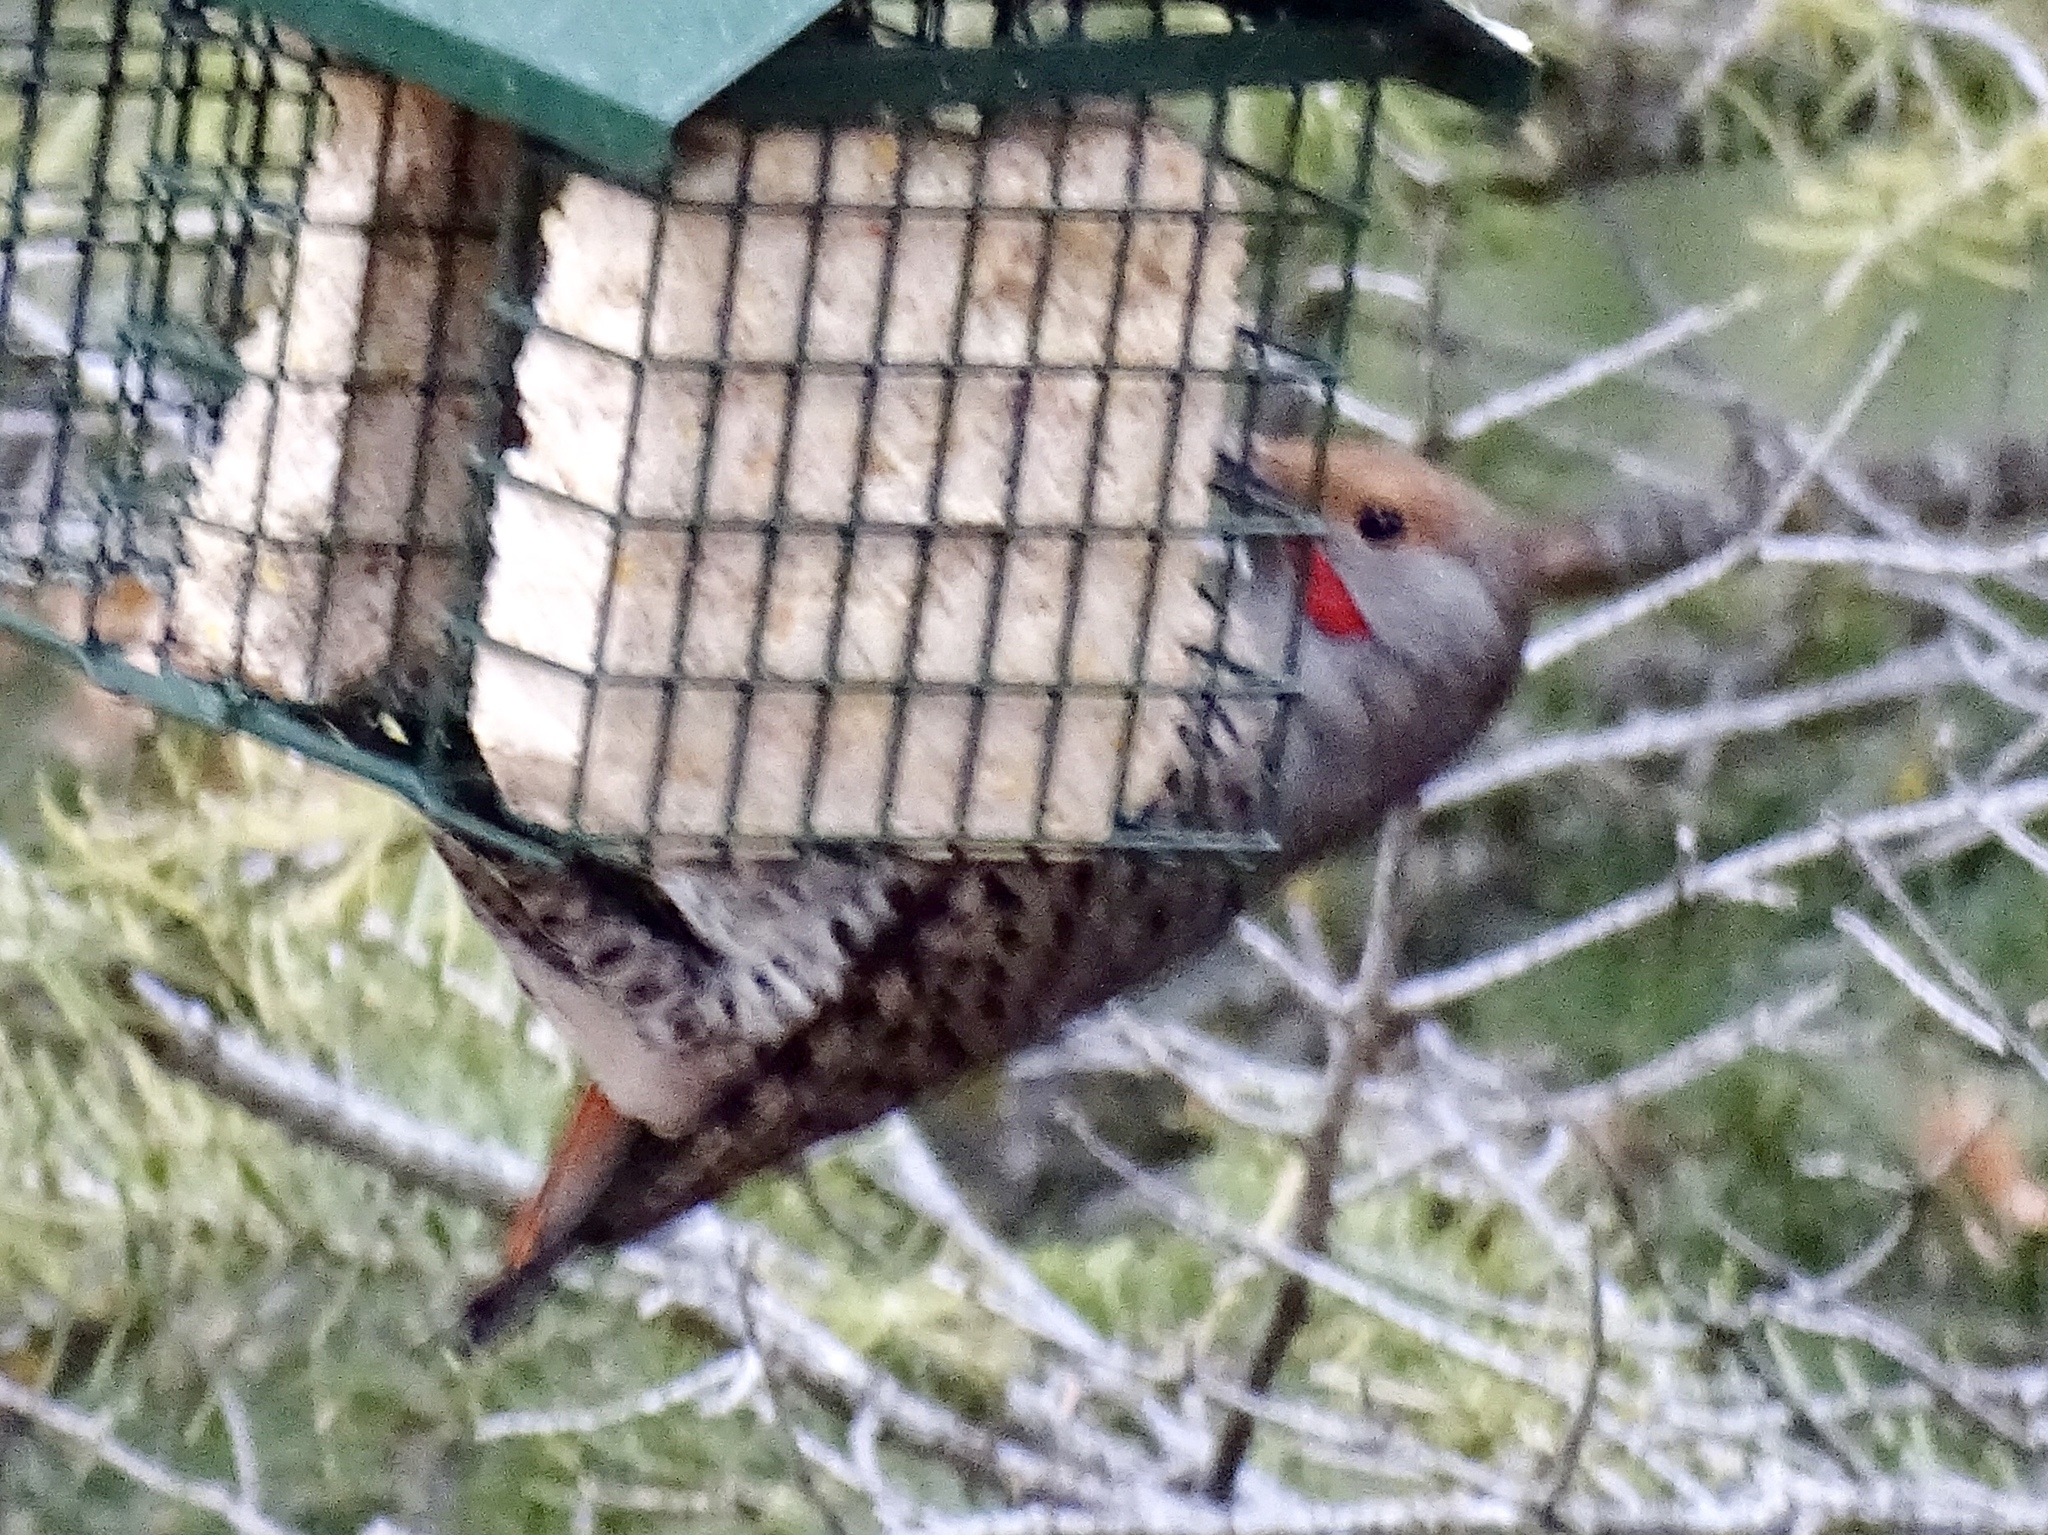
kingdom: Animalia
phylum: Chordata
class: Aves
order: Piciformes
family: Picidae
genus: Colaptes
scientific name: Colaptes auratus
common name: Northern flicker
